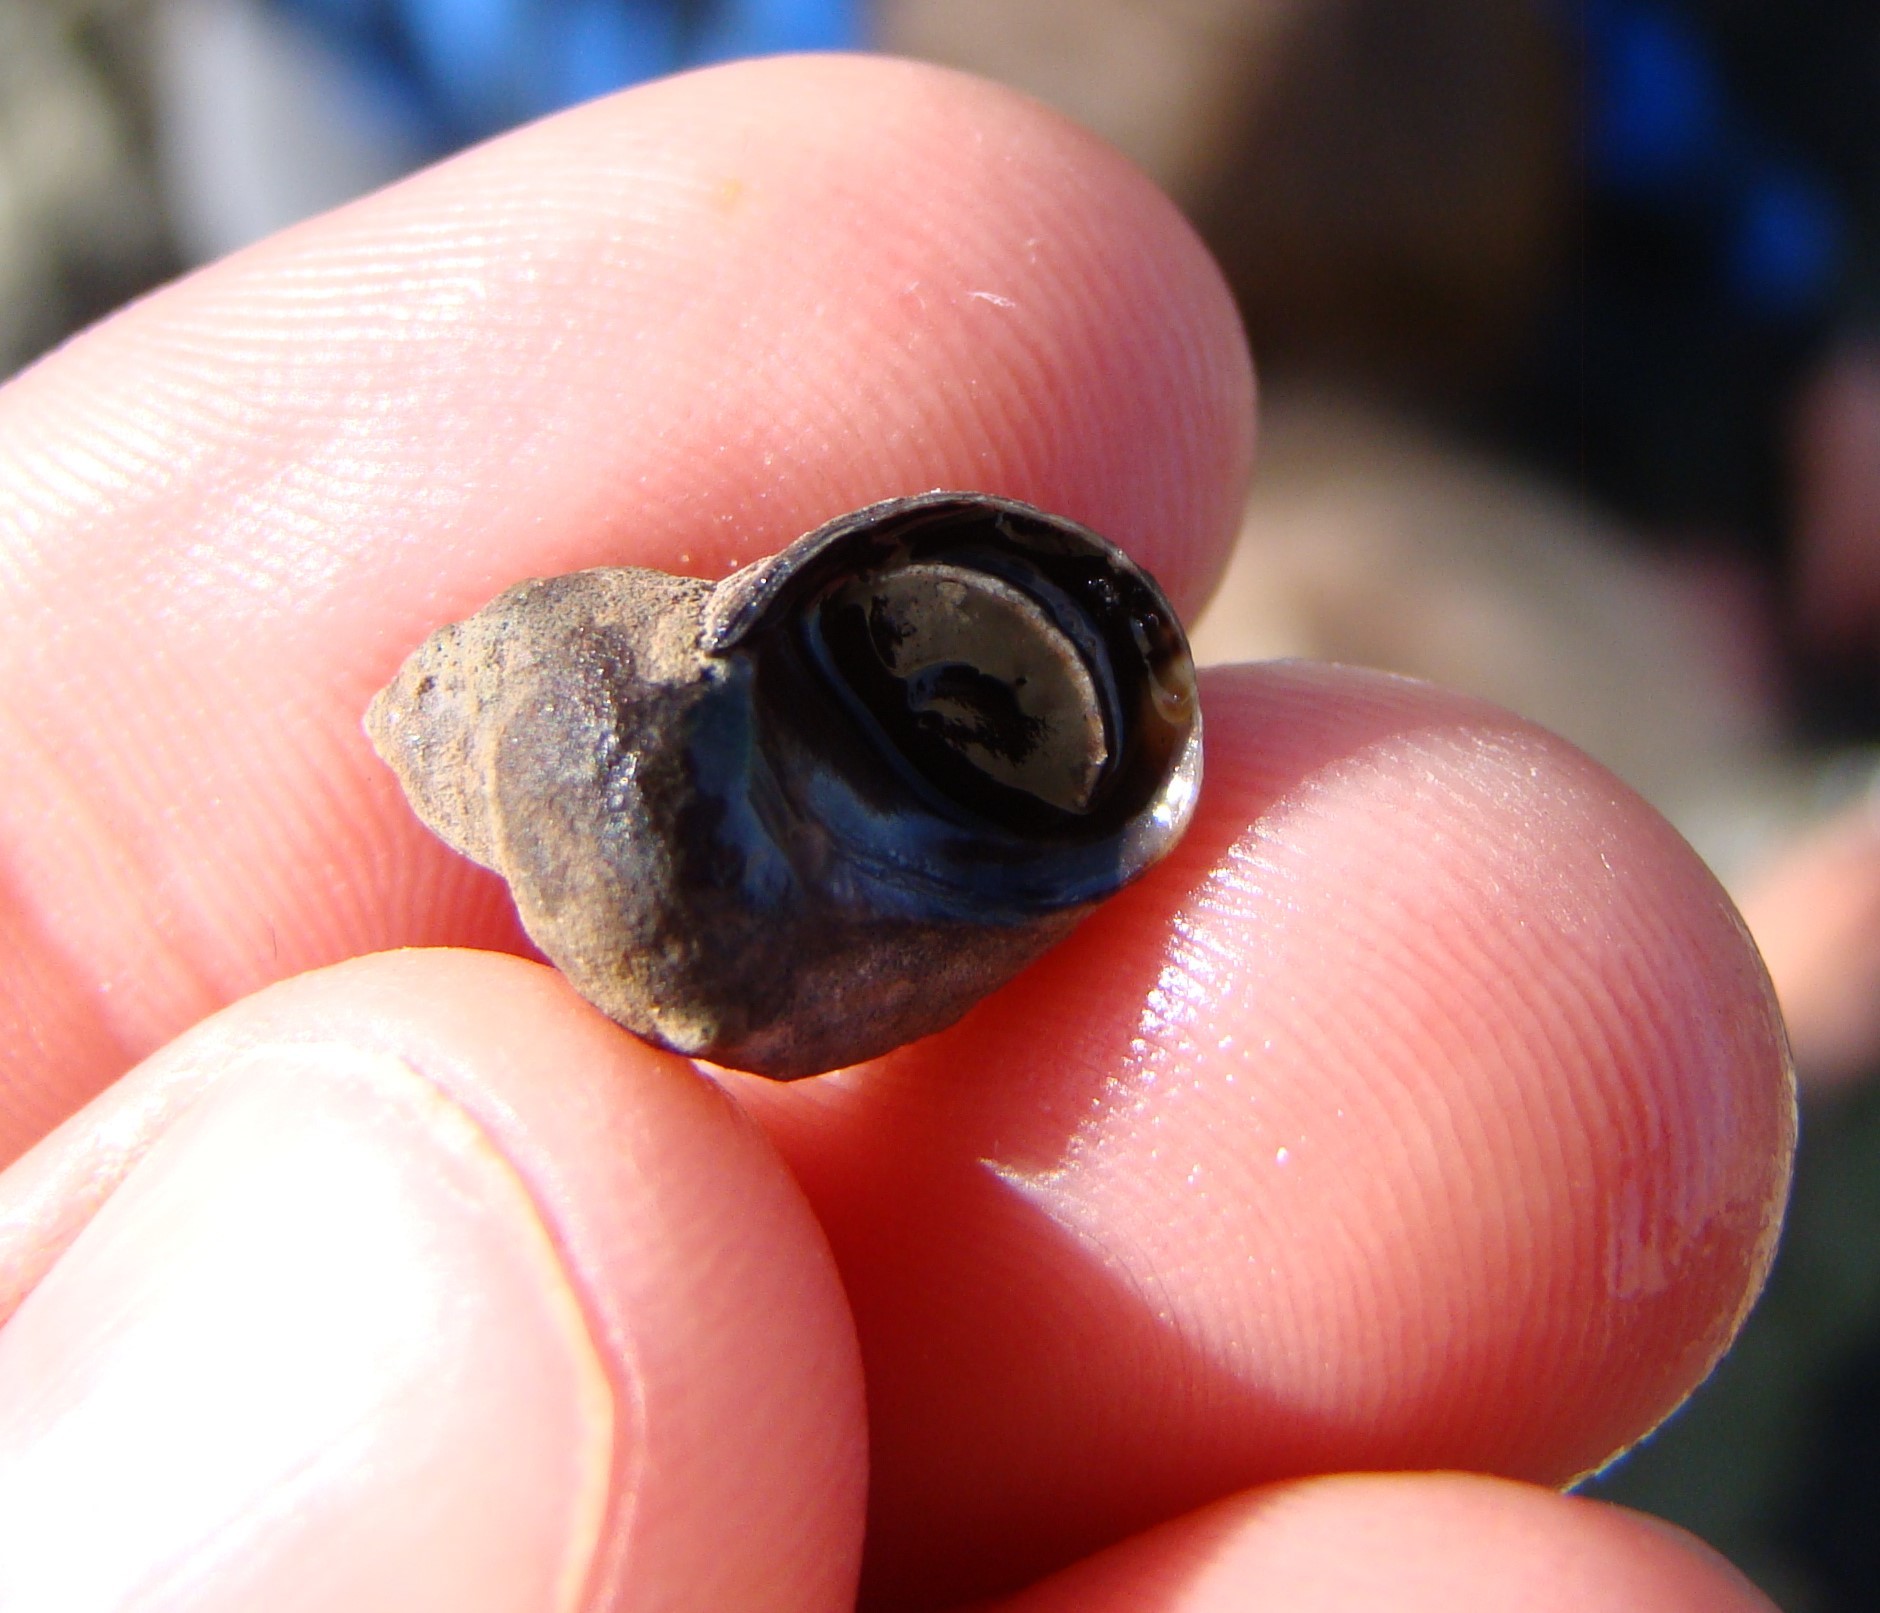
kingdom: Animalia
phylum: Mollusca
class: Gastropoda
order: Littorinimorpha
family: Littorinidae
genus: Austrolittorina
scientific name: Austrolittorina cincta
